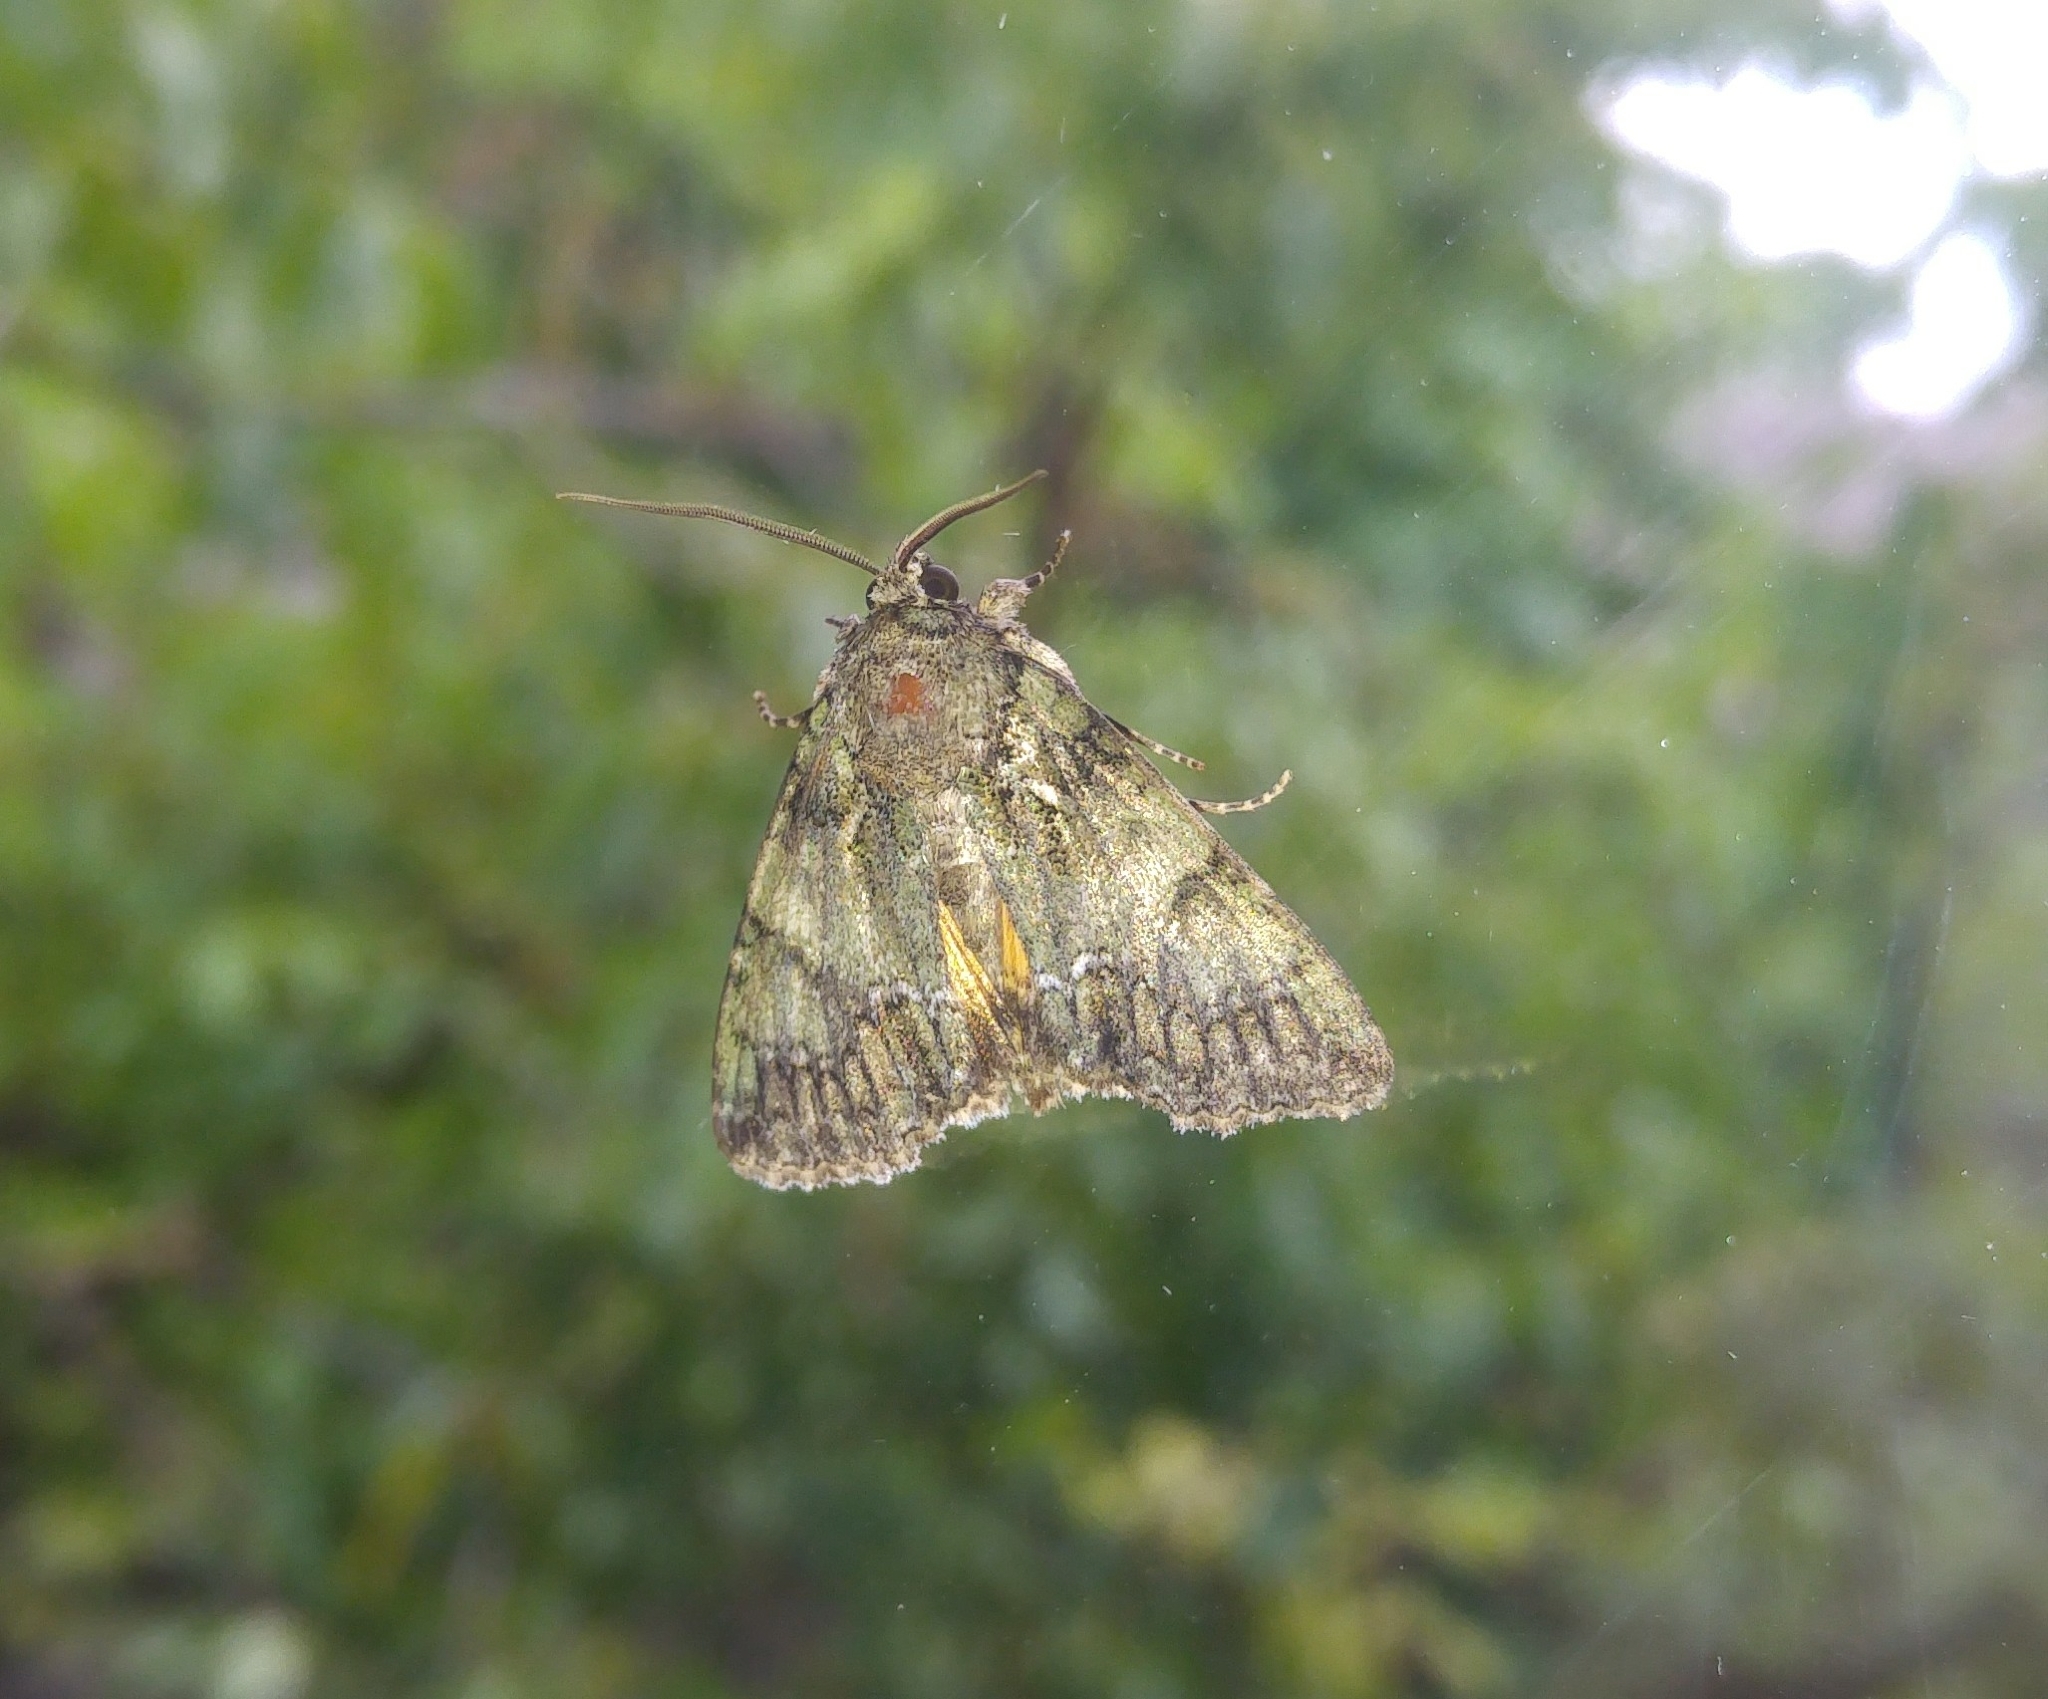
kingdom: Animalia
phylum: Arthropoda
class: Insecta
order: Lepidoptera
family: Noctuidae
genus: Polyphaenis
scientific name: Polyphaenis sericata
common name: Guernsey underwing
